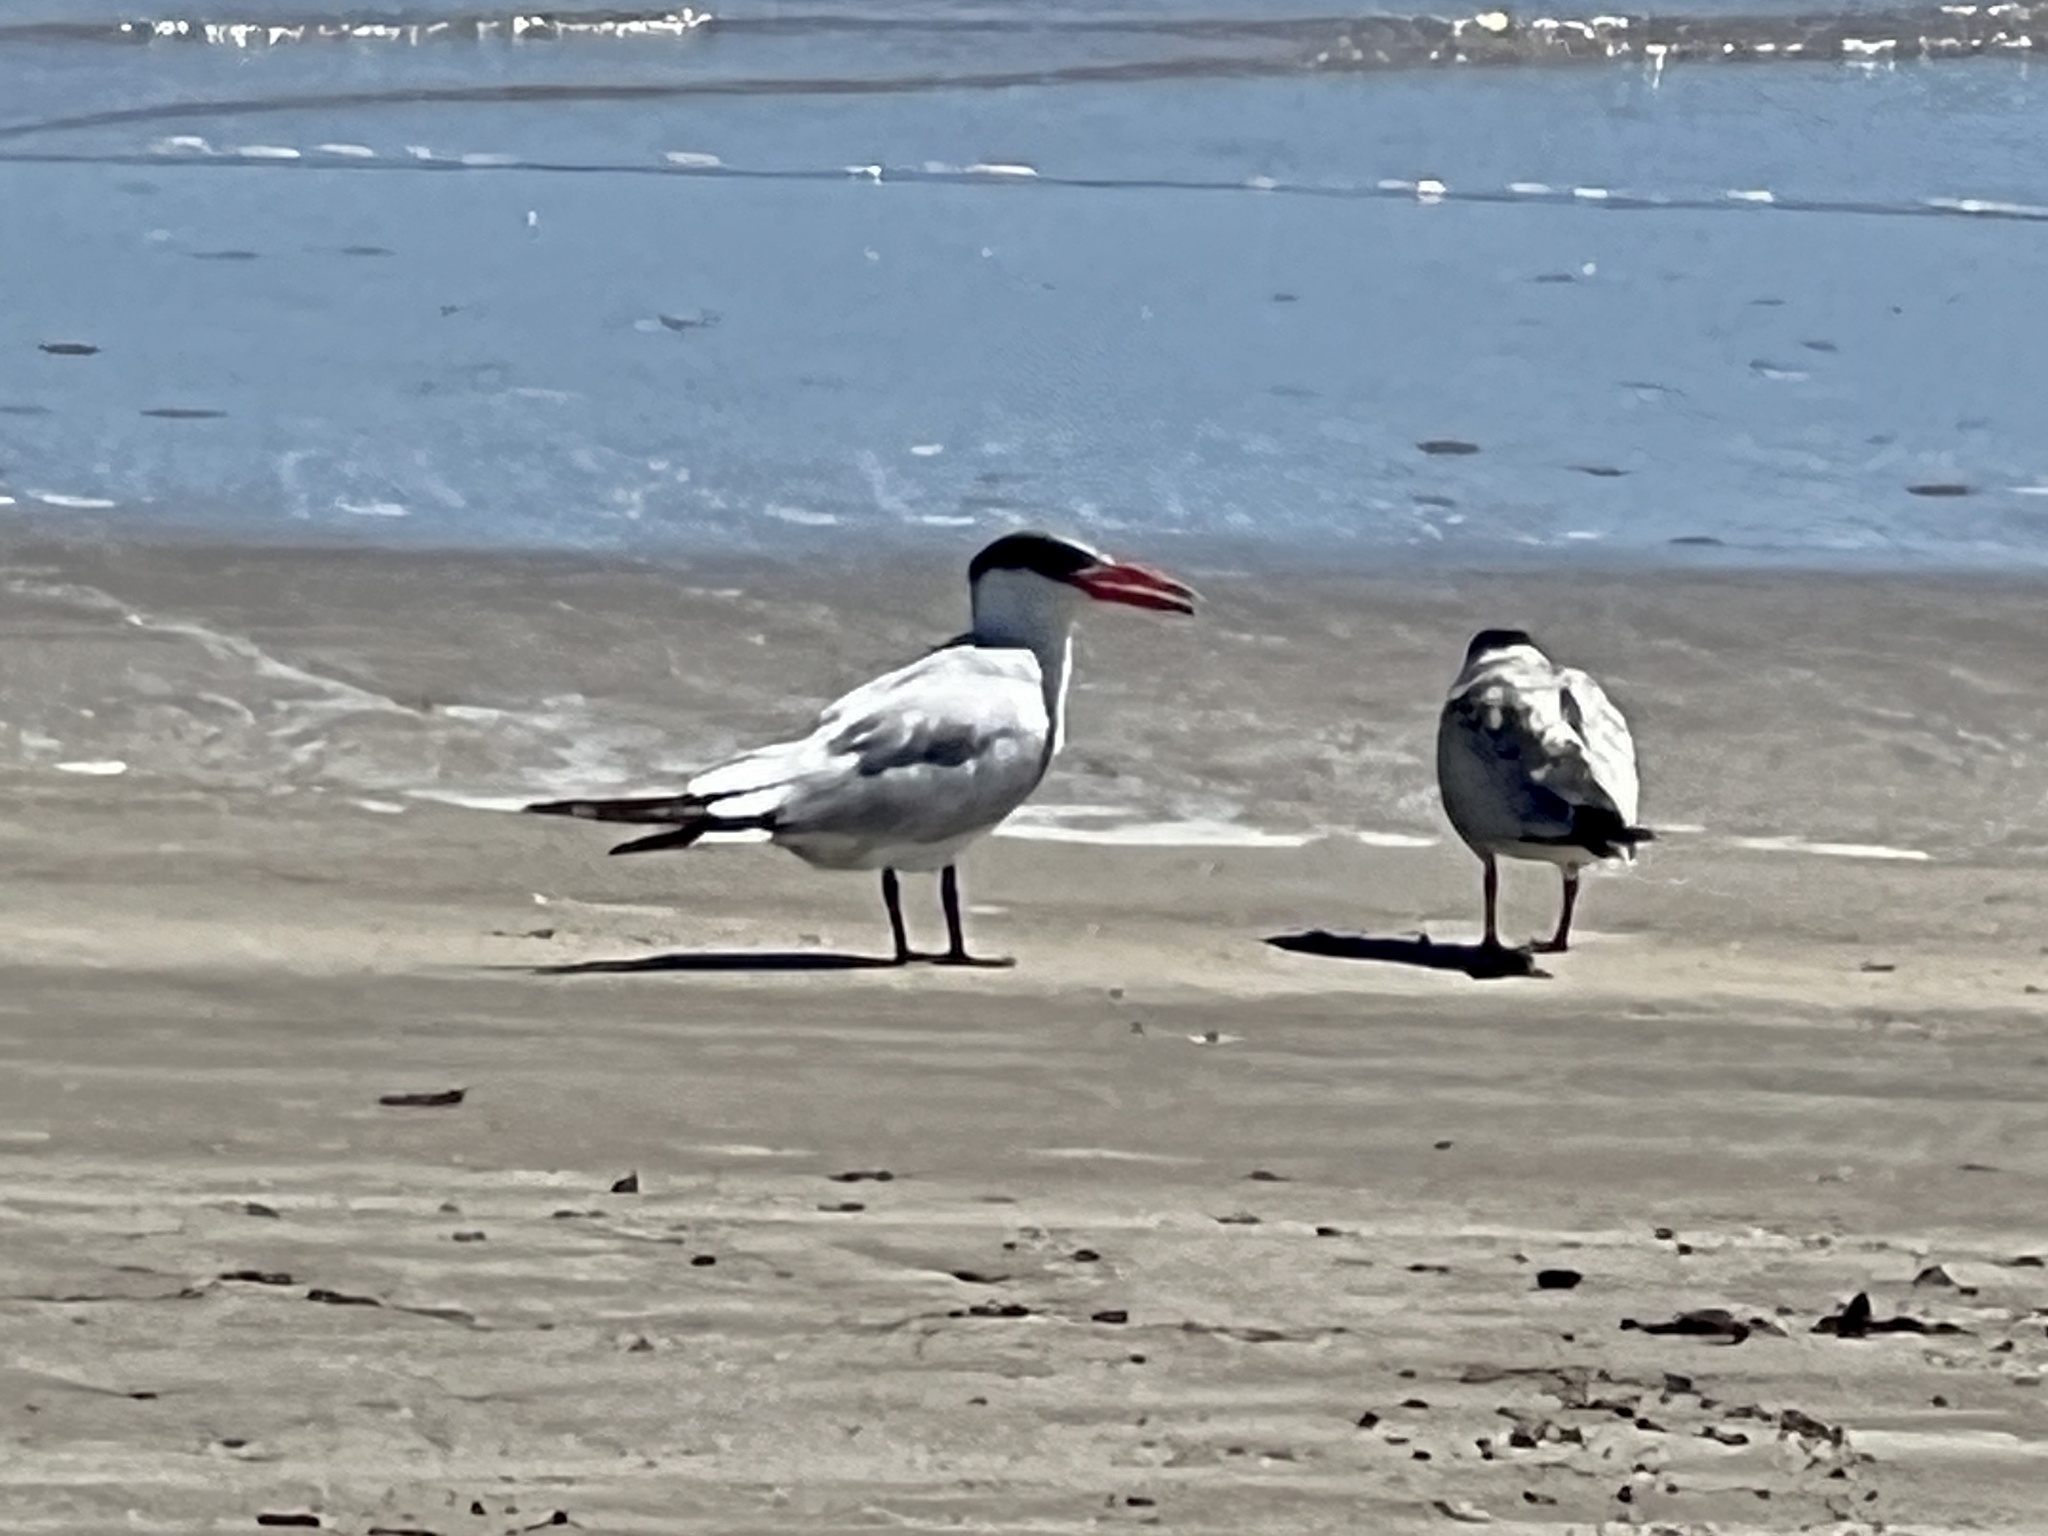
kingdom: Animalia
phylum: Chordata
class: Aves
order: Charadriiformes
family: Laridae
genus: Hydroprogne
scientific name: Hydroprogne caspia
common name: Caspian tern
